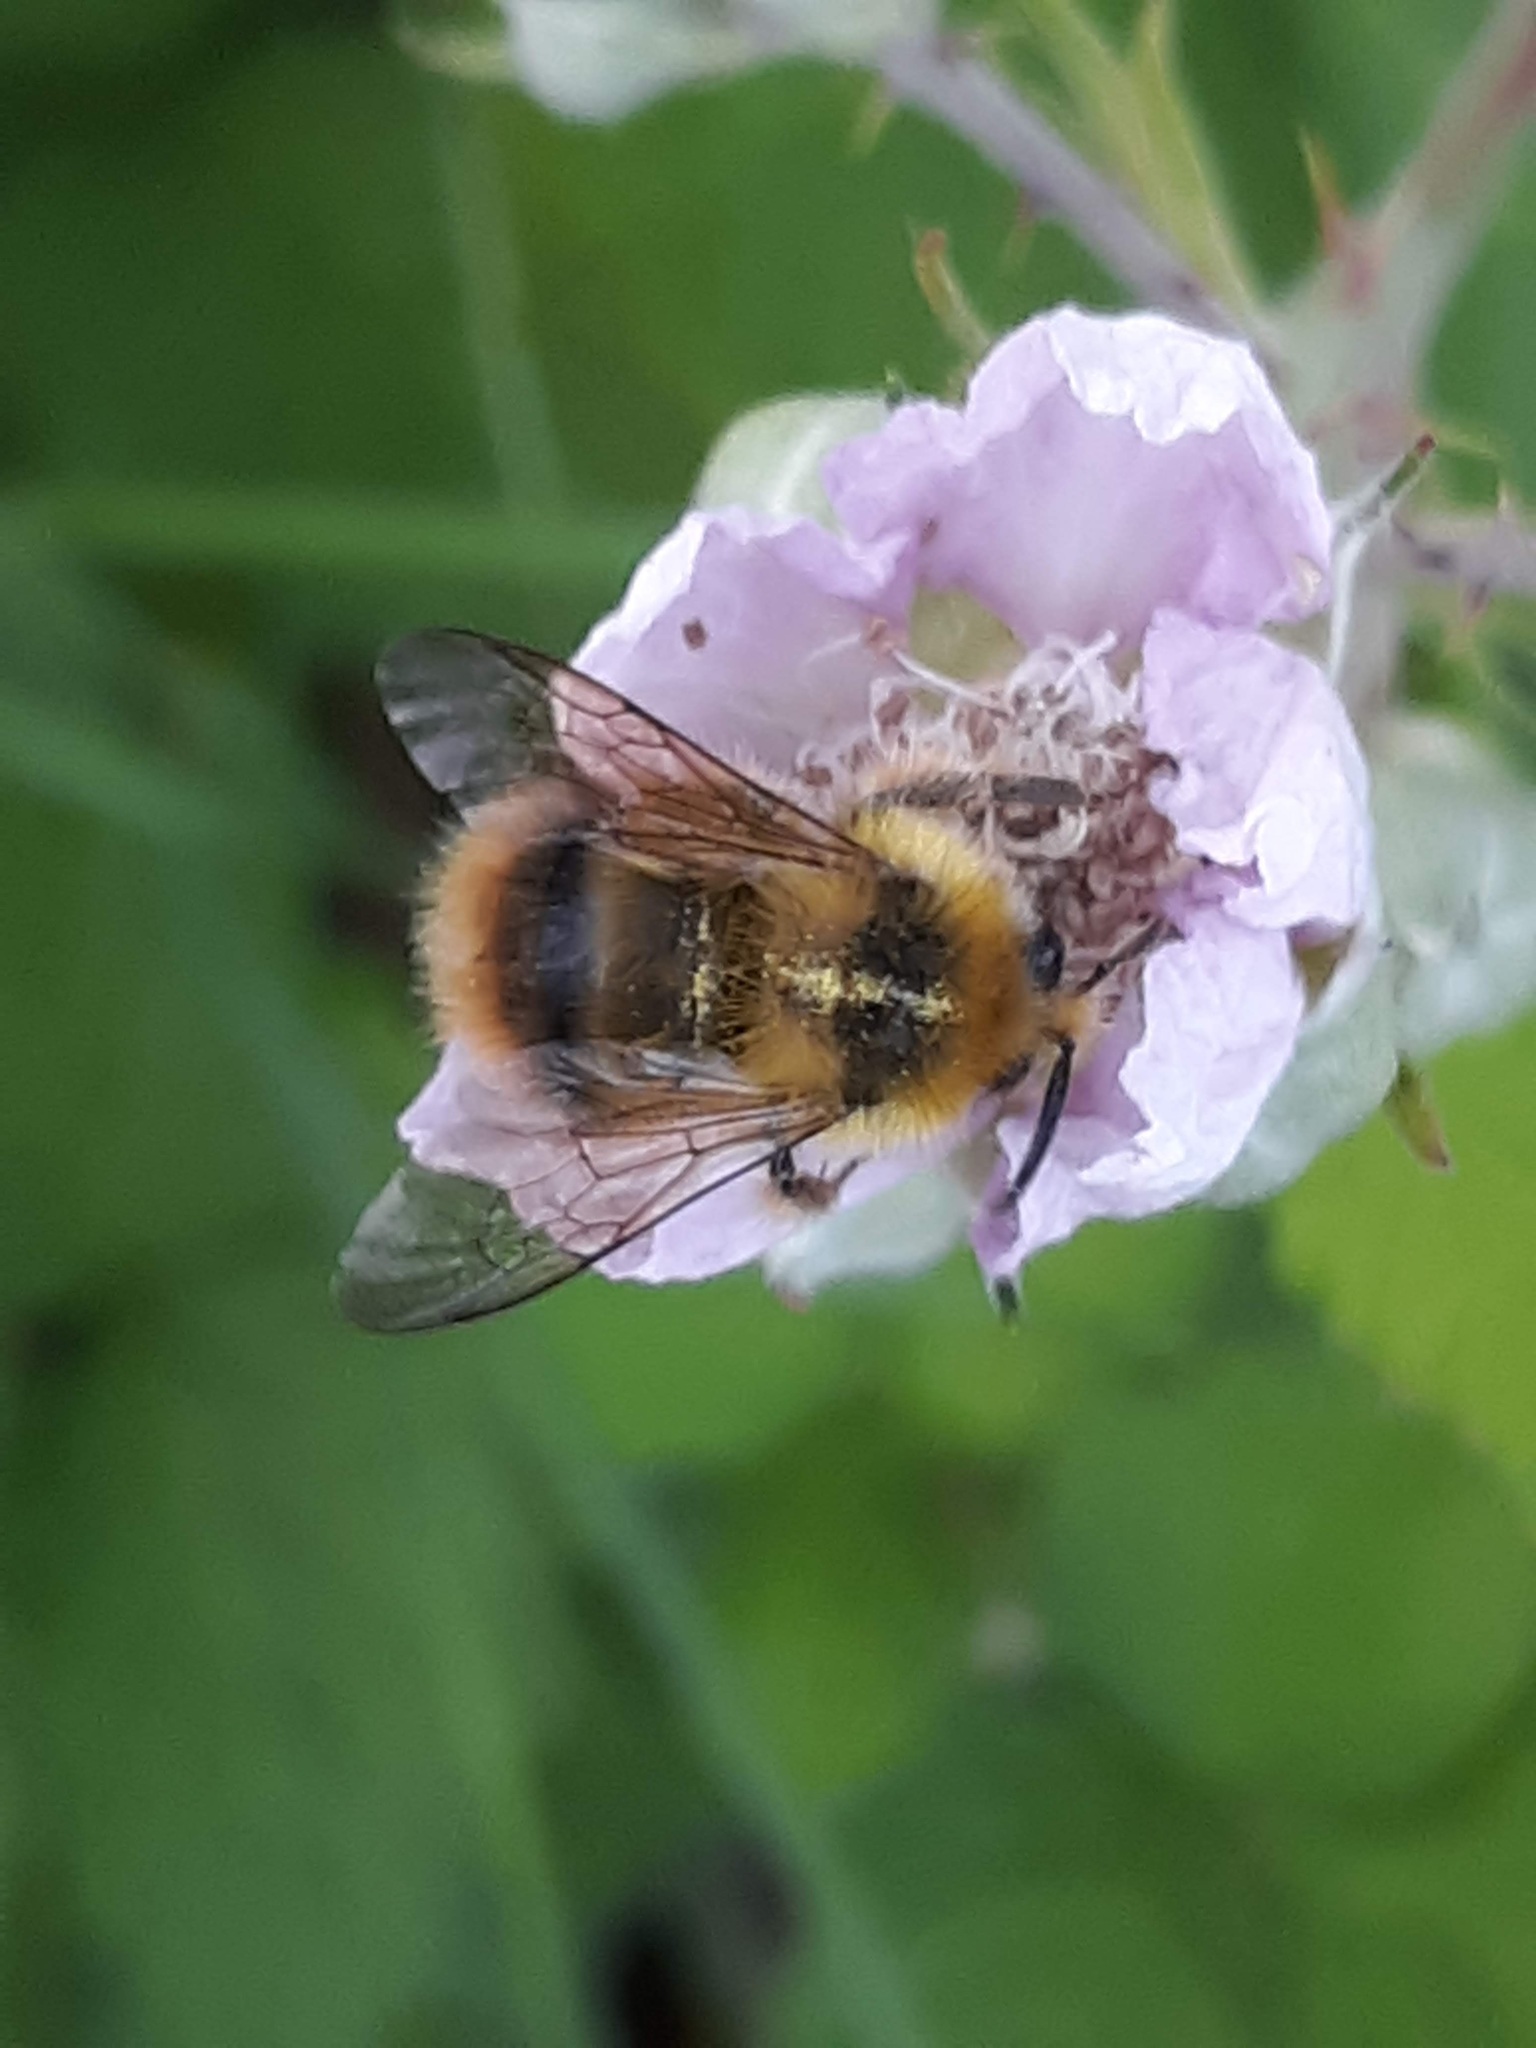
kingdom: Animalia
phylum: Arthropoda
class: Insecta
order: Hymenoptera
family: Apidae
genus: Bombus
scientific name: Bombus mixtus
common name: Fuzzy-horned bumble bee
